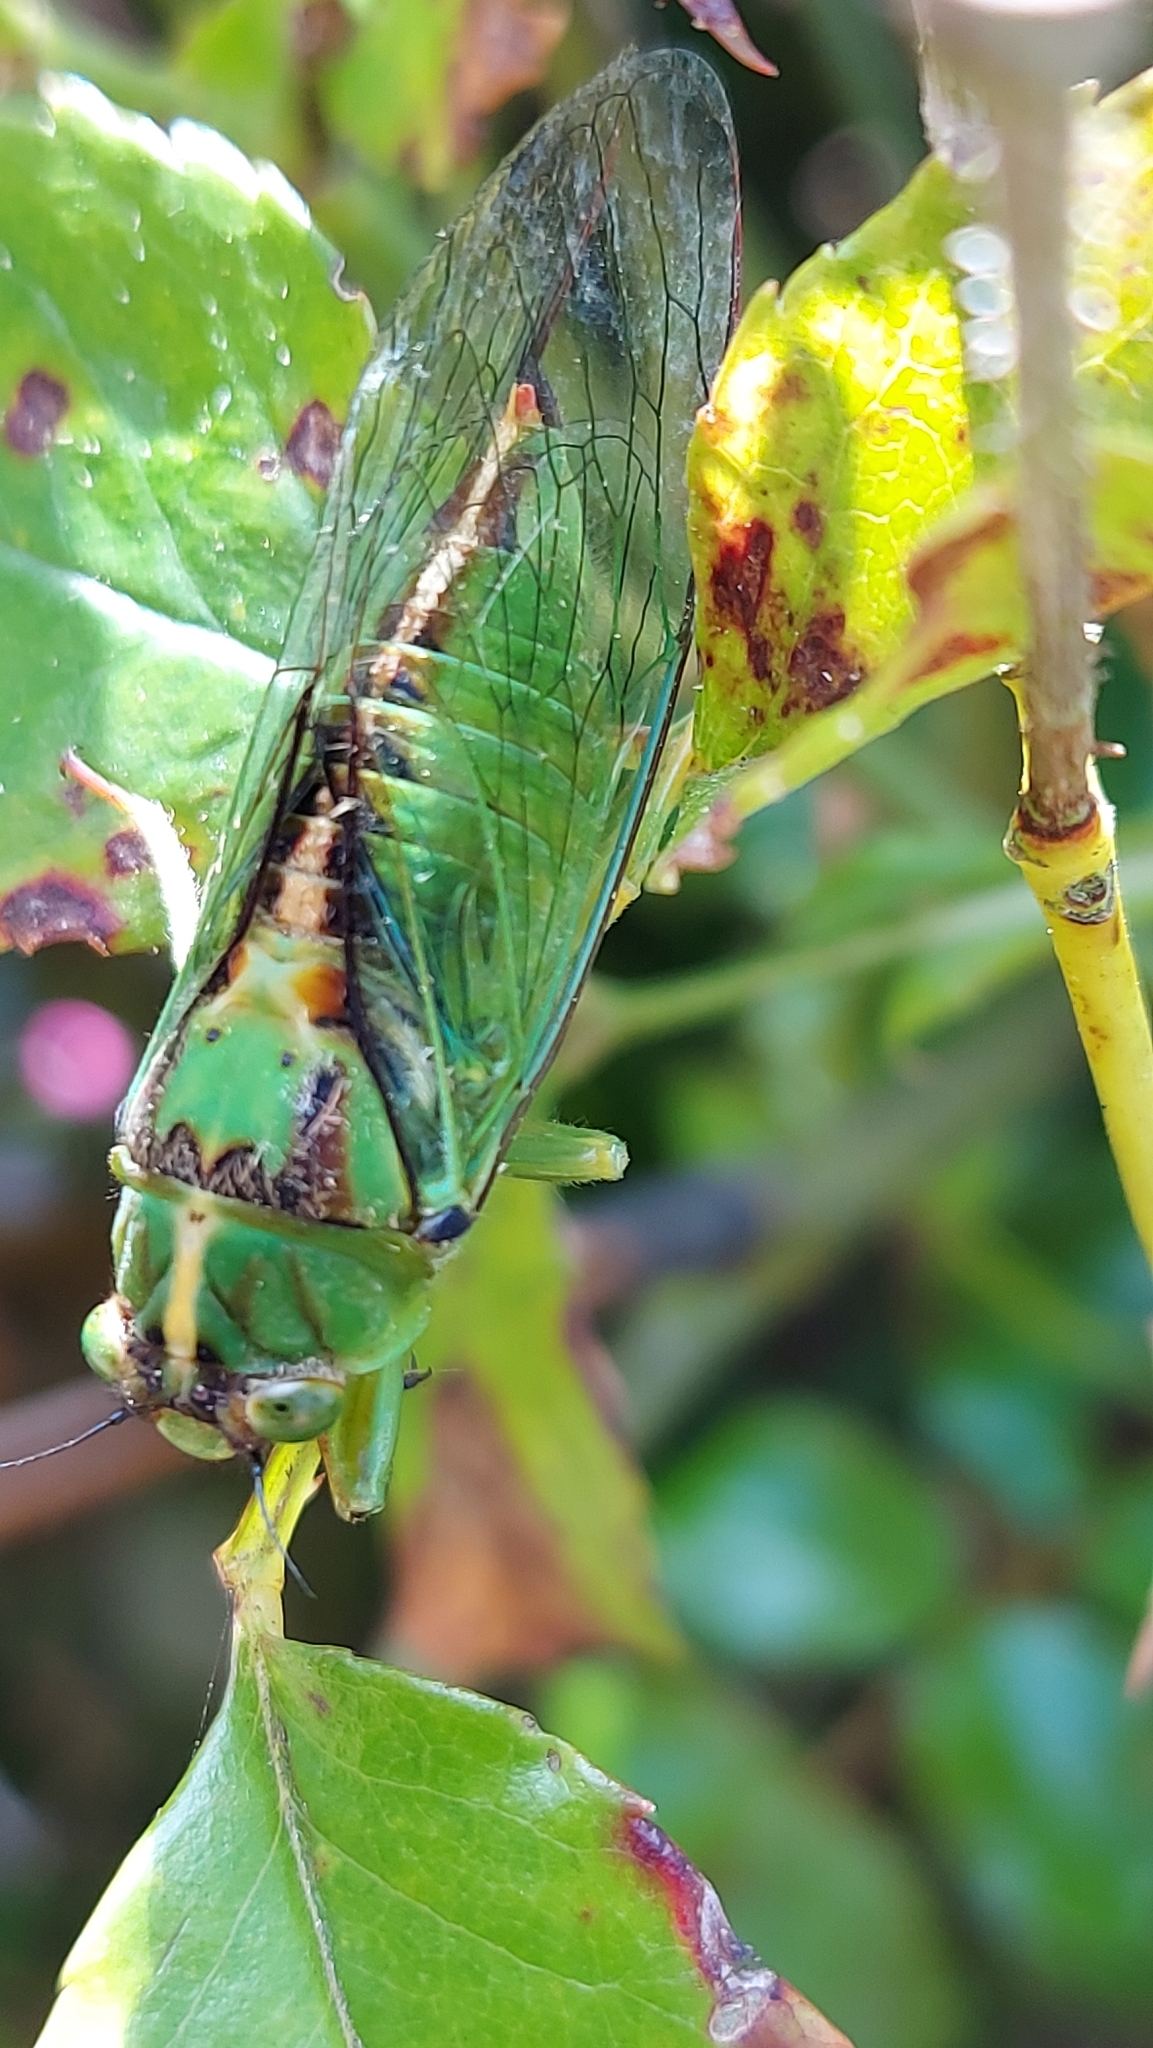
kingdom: Animalia
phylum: Arthropoda
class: Insecta
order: Hemiptera
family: Cicadidae
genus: Kikihia
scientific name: Kikihia subalpina
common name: Chathams cicada
